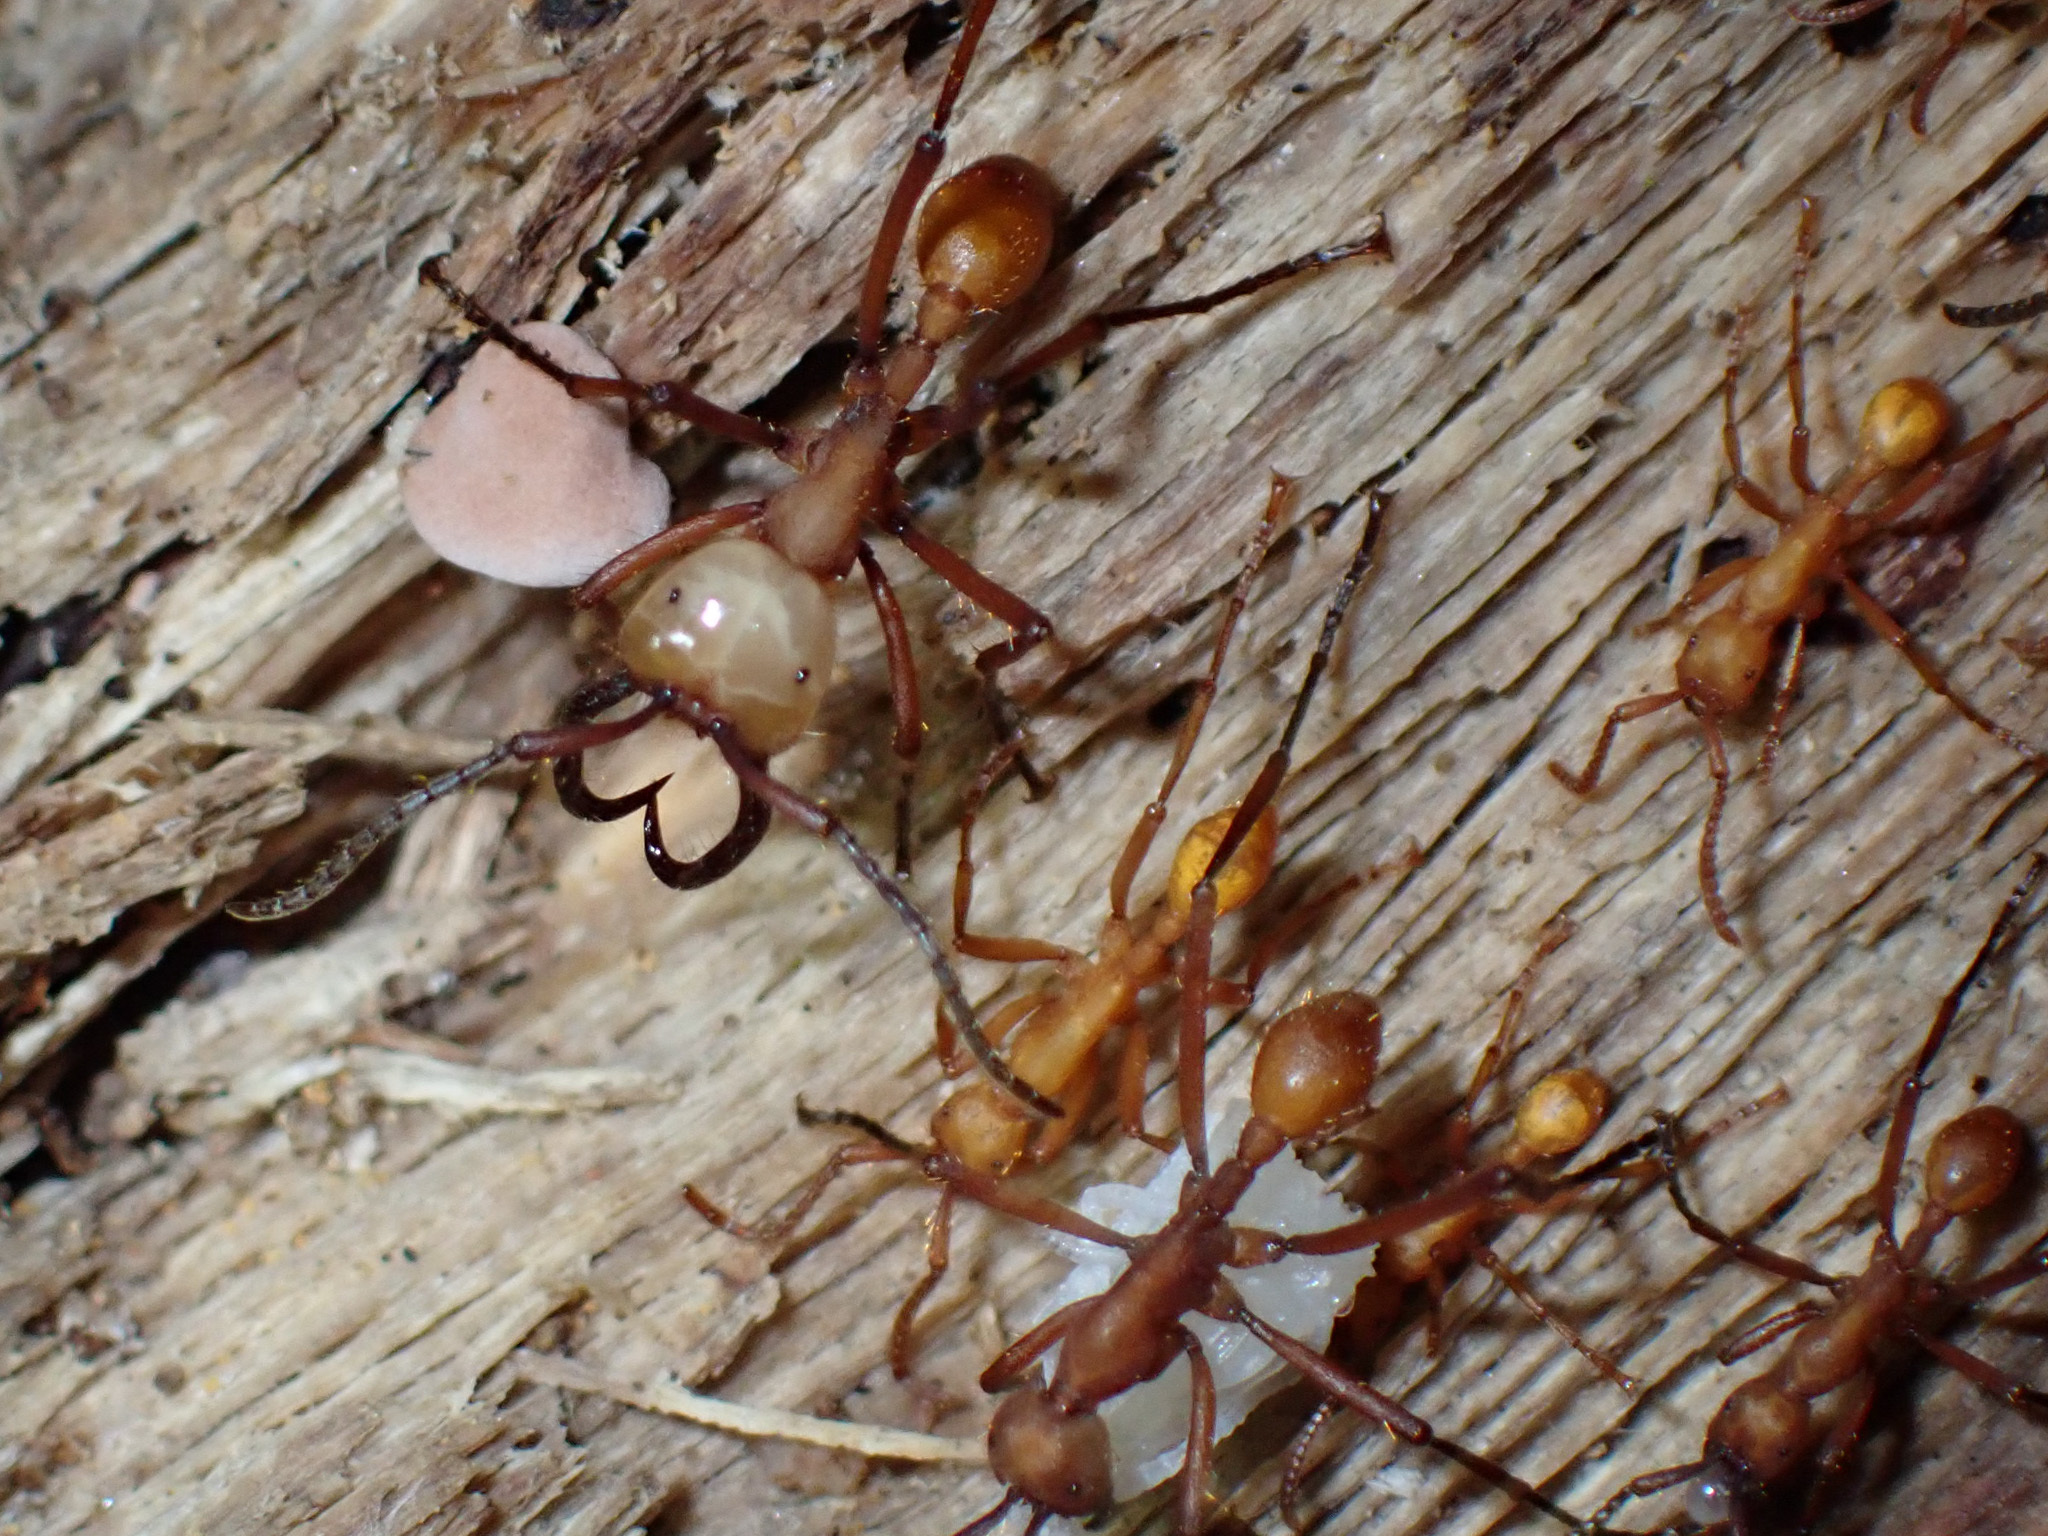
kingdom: Animalia
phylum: Arthropoda
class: Insecta
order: Hymenoptera
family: Formicidae
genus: Eciton
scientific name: Eciton hamatum
